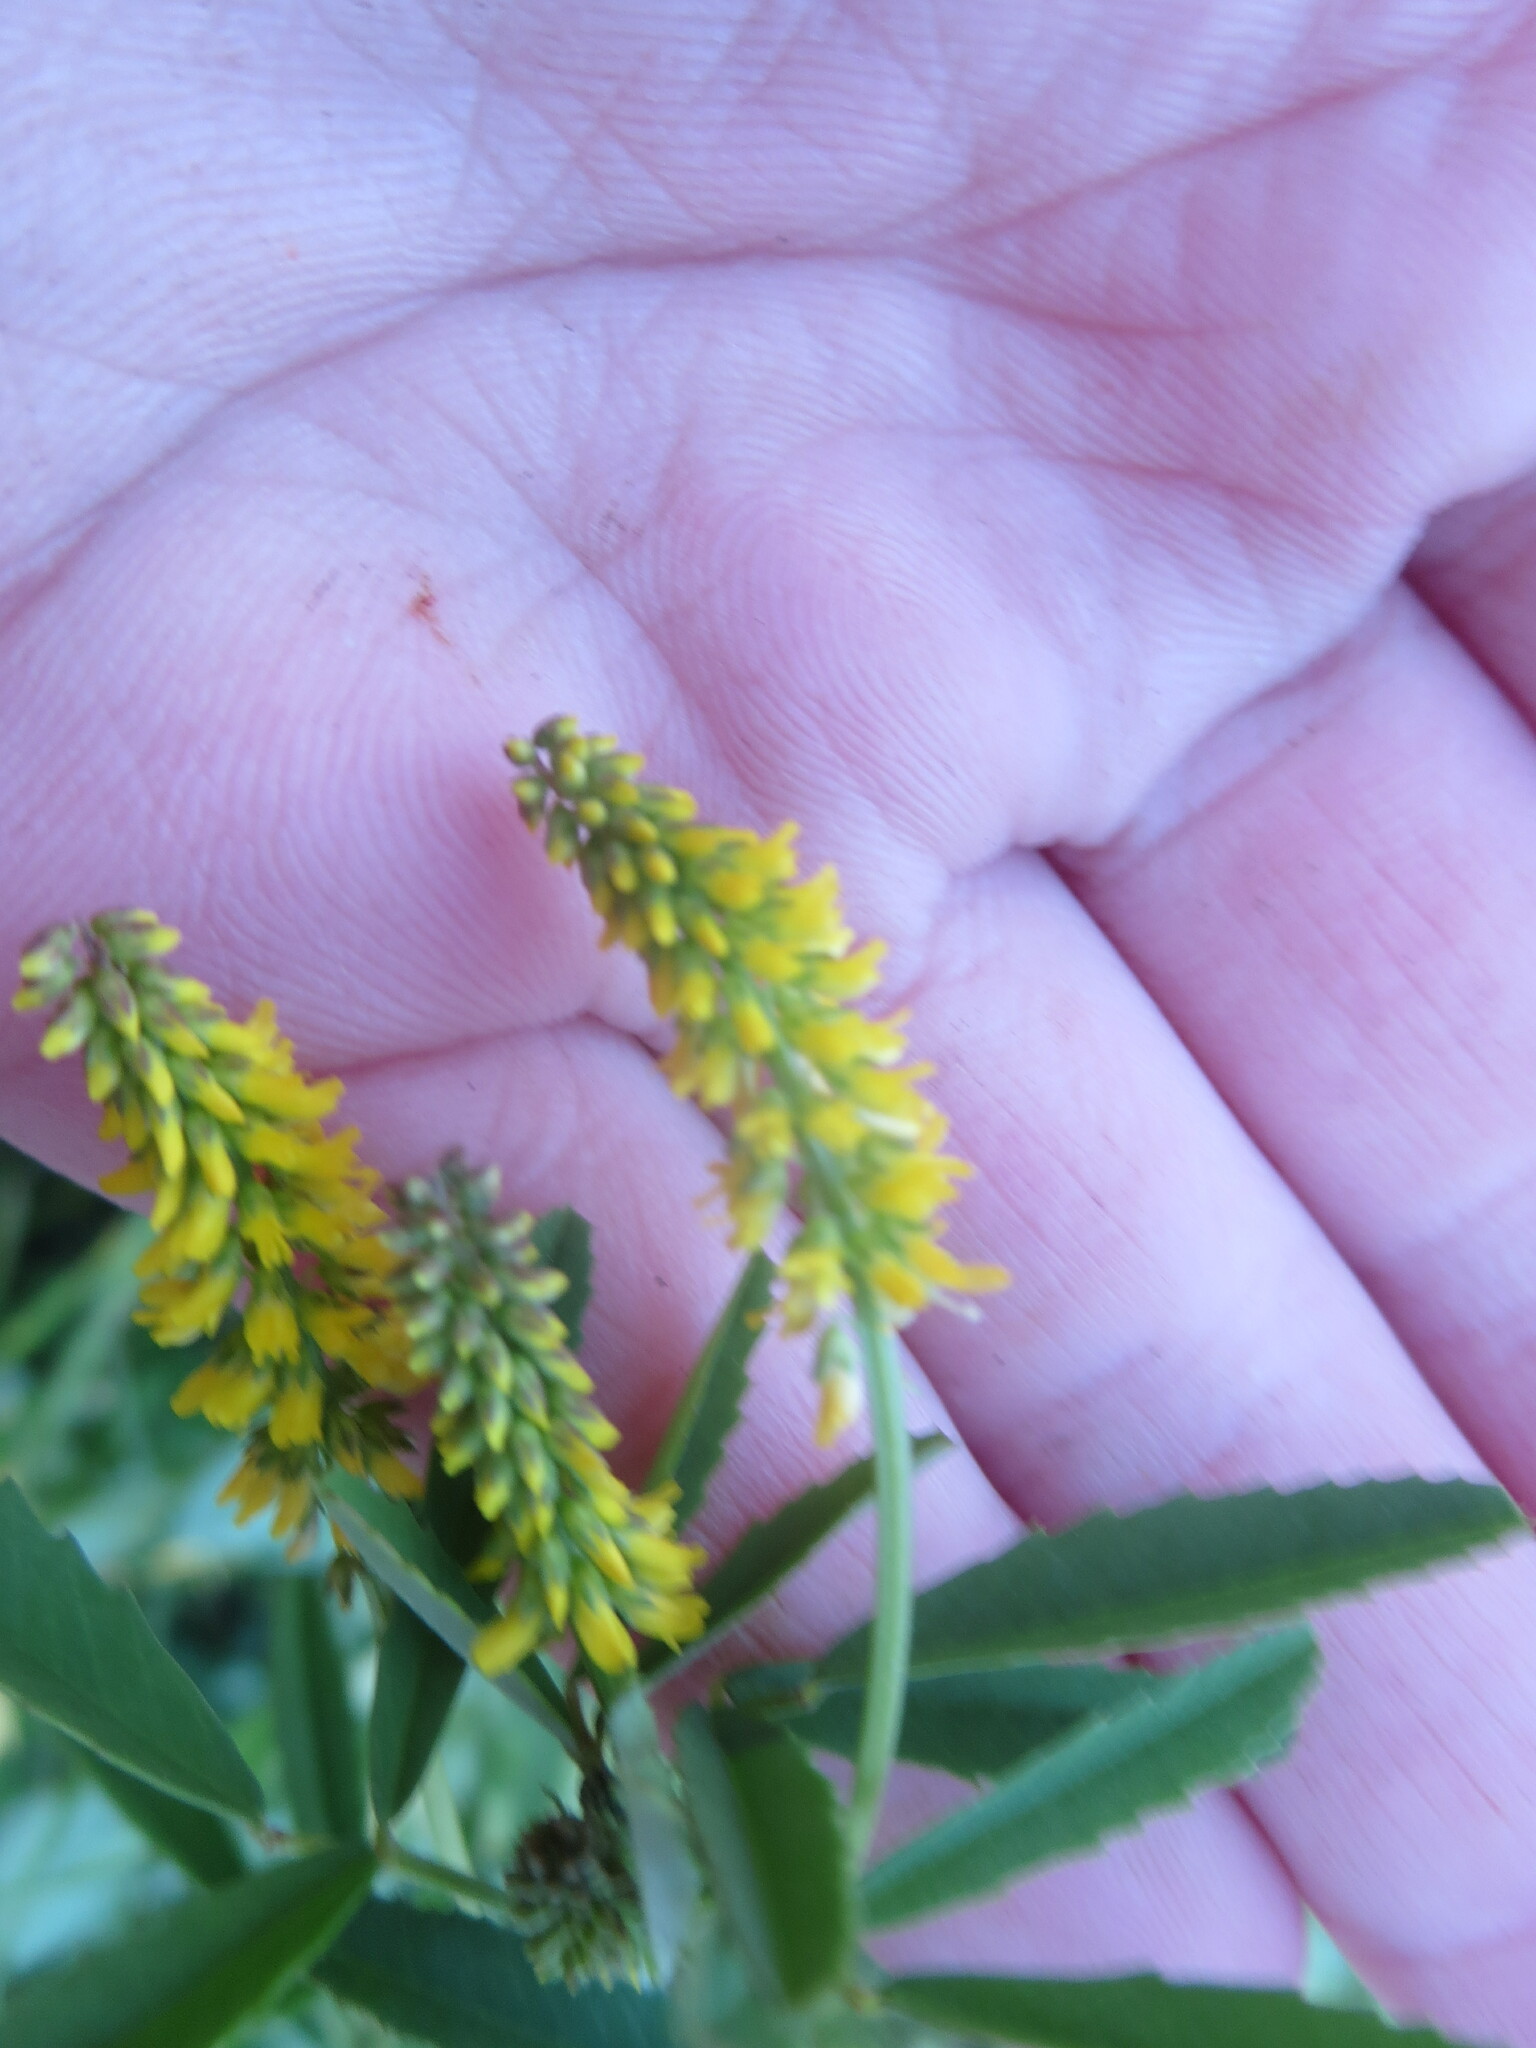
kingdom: Plantae
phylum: Tracheophyta
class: Magnoliopsida
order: Fabales
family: Fabaceae
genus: Melilotus
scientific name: Melilotus indicus
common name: Small melilot
